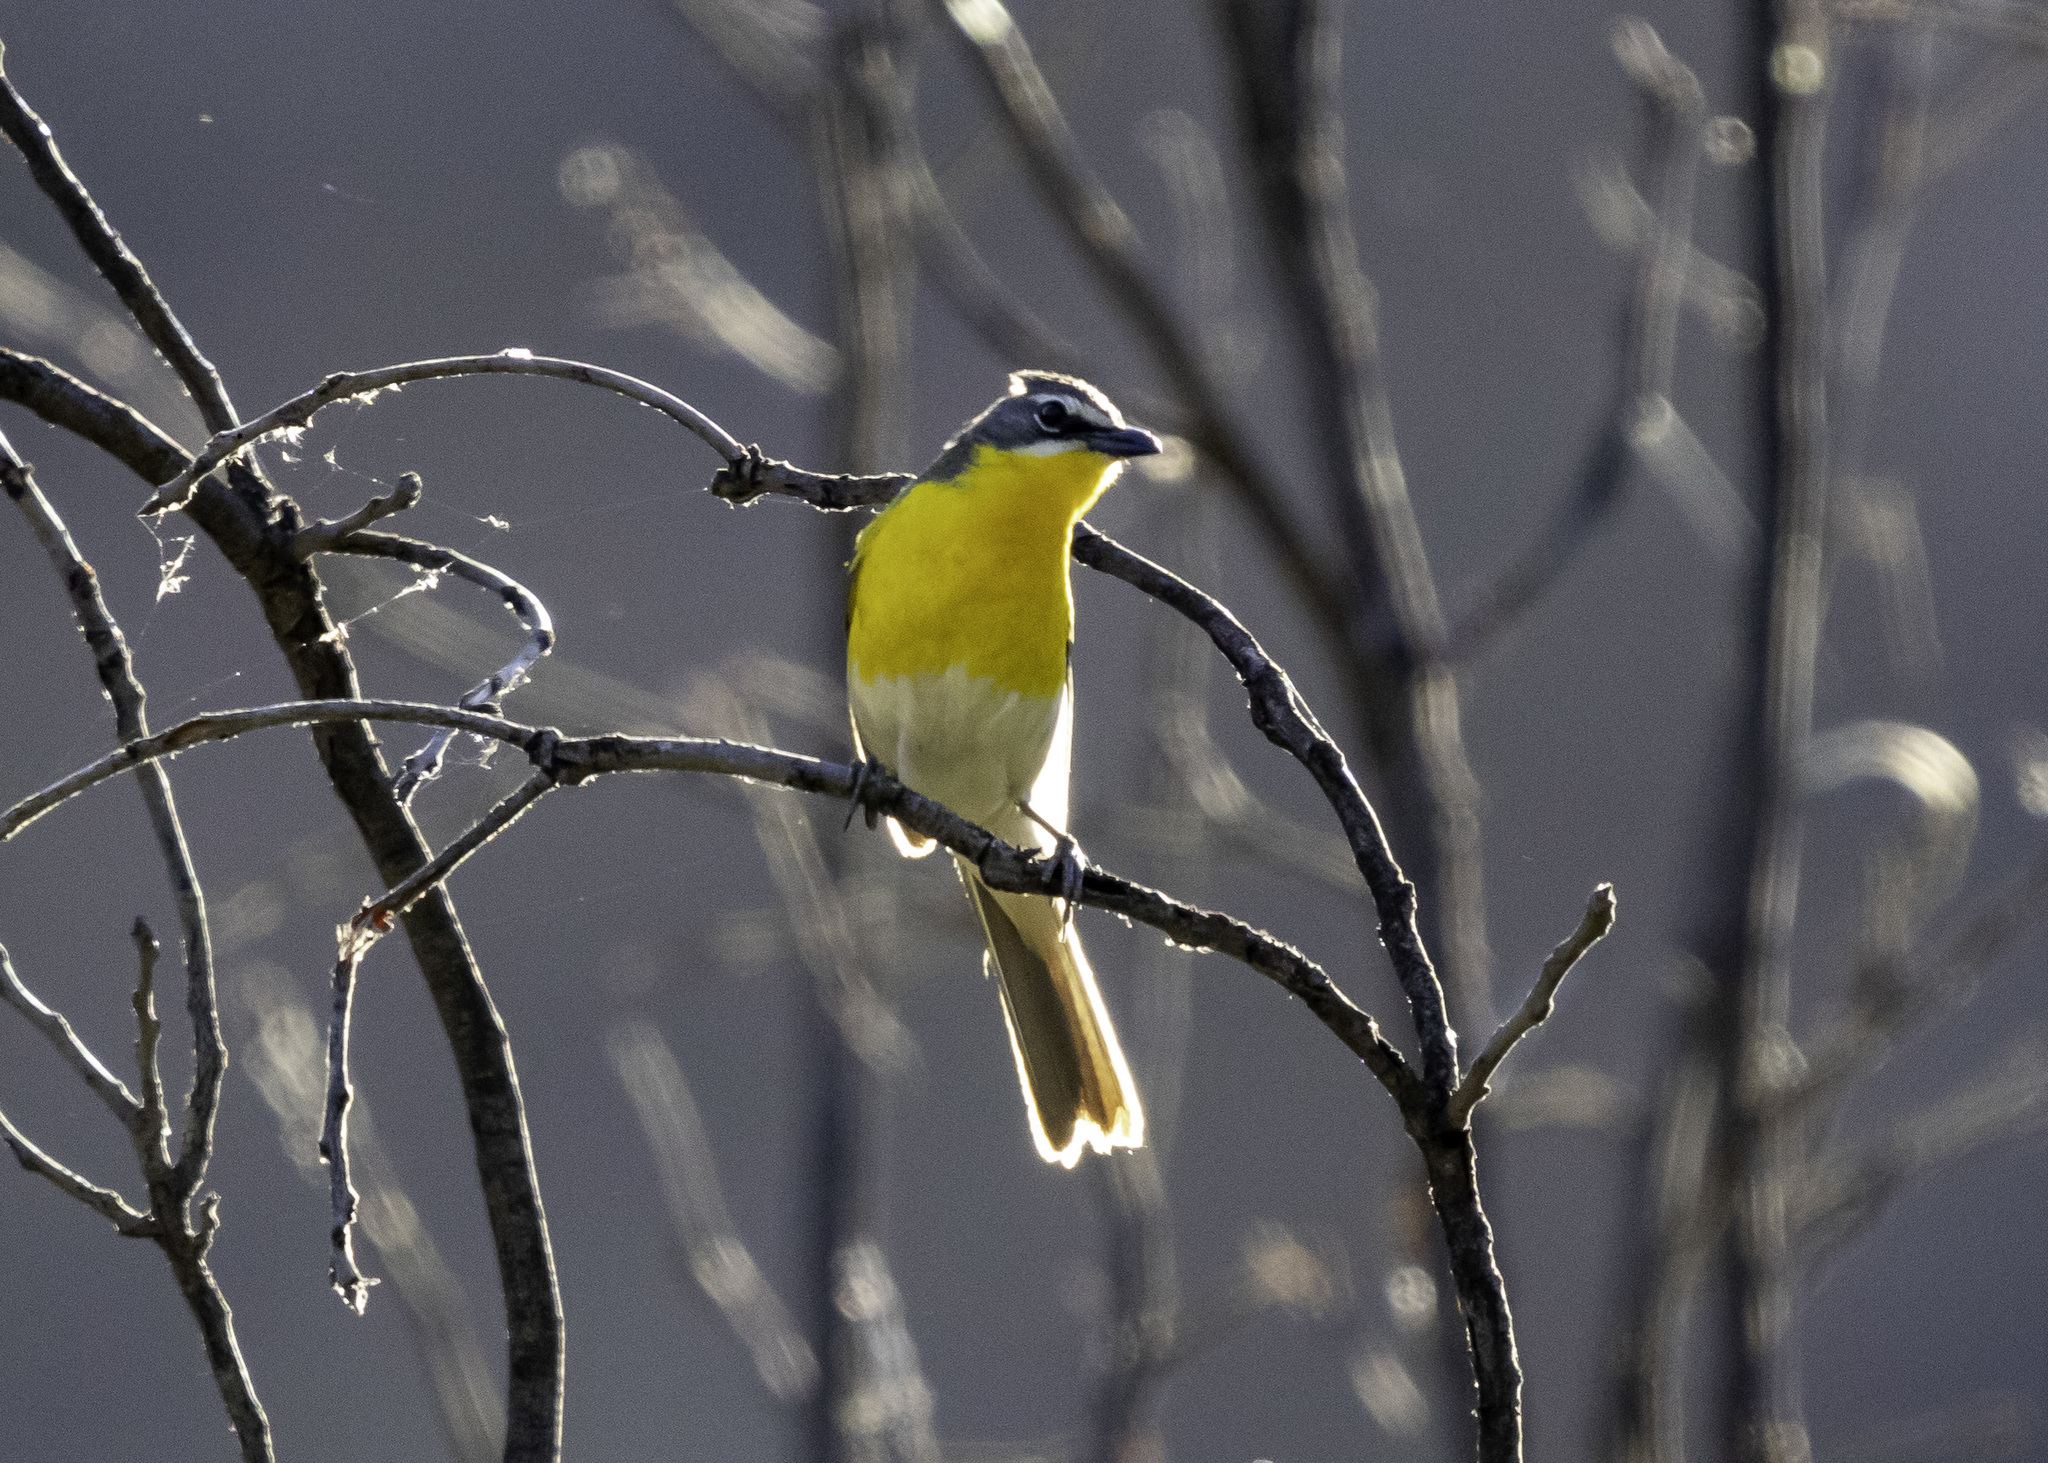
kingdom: Animalia
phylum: Chordata
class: Aves
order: Passeriformes
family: Parulidae
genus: Icteria
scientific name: Icteria virens
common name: Yellow-breasted chat
